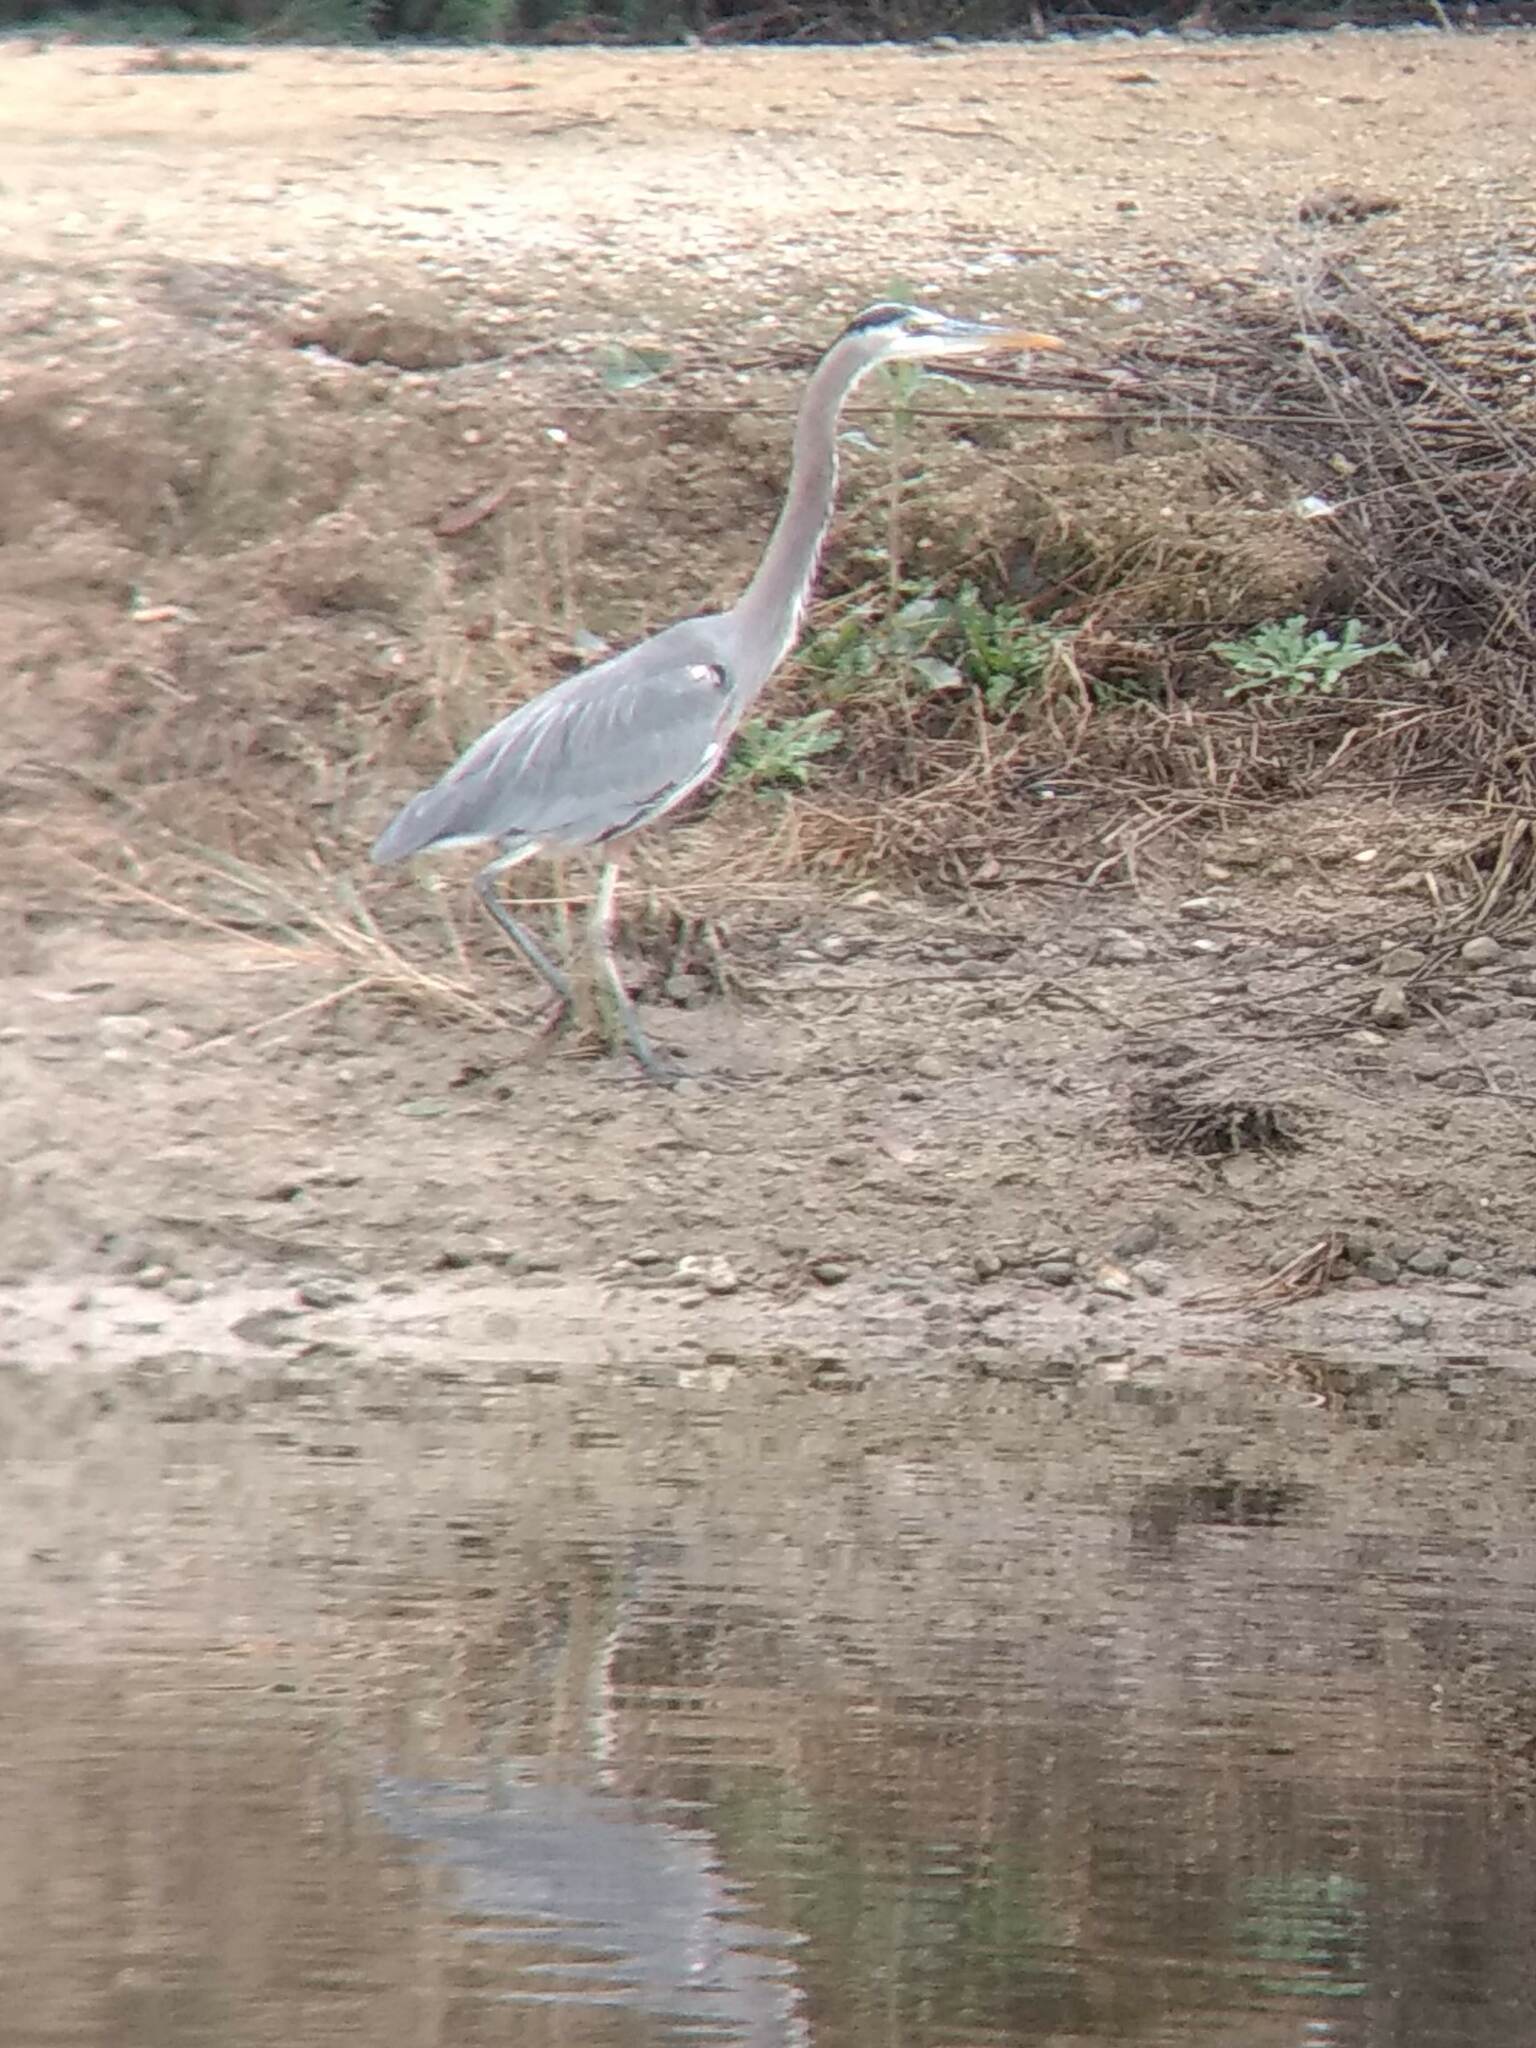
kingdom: Animalia
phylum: Chordata
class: Aves
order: Pelecaniformes
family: Ardeidae
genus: Ardea
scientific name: Ardea herodias
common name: Great blue heron
